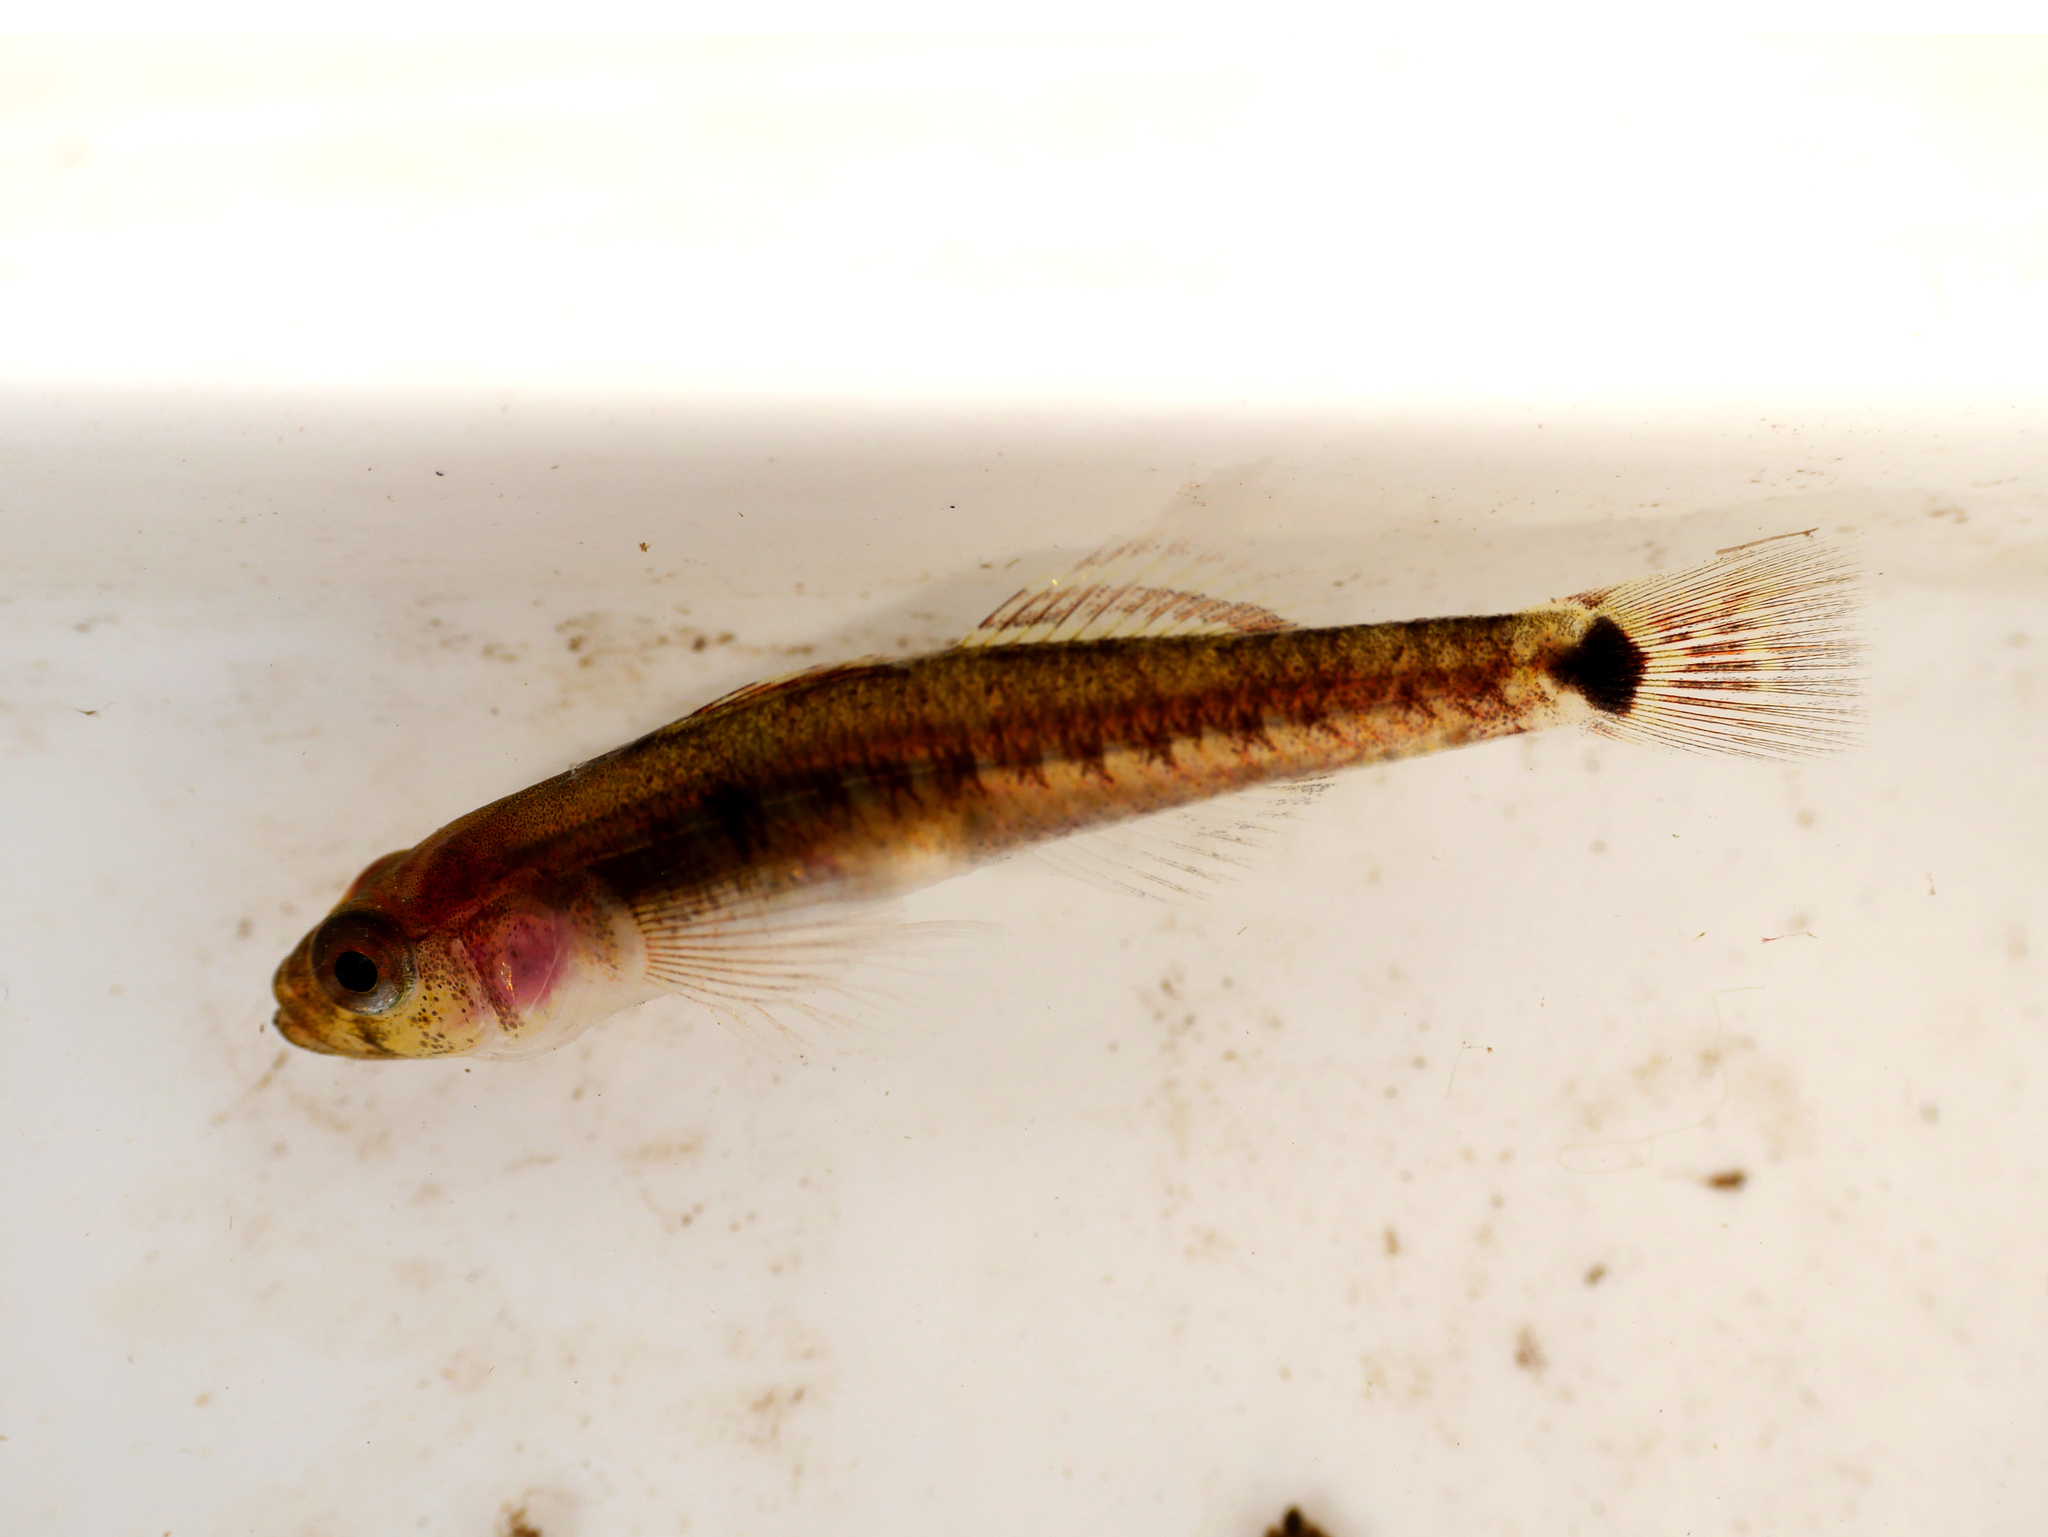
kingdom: Animalia
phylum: Chordata
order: Perciformes
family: Gobiidae
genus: Gobiusculus
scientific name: Gobiusculus flavescens
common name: Two-spotted goby
